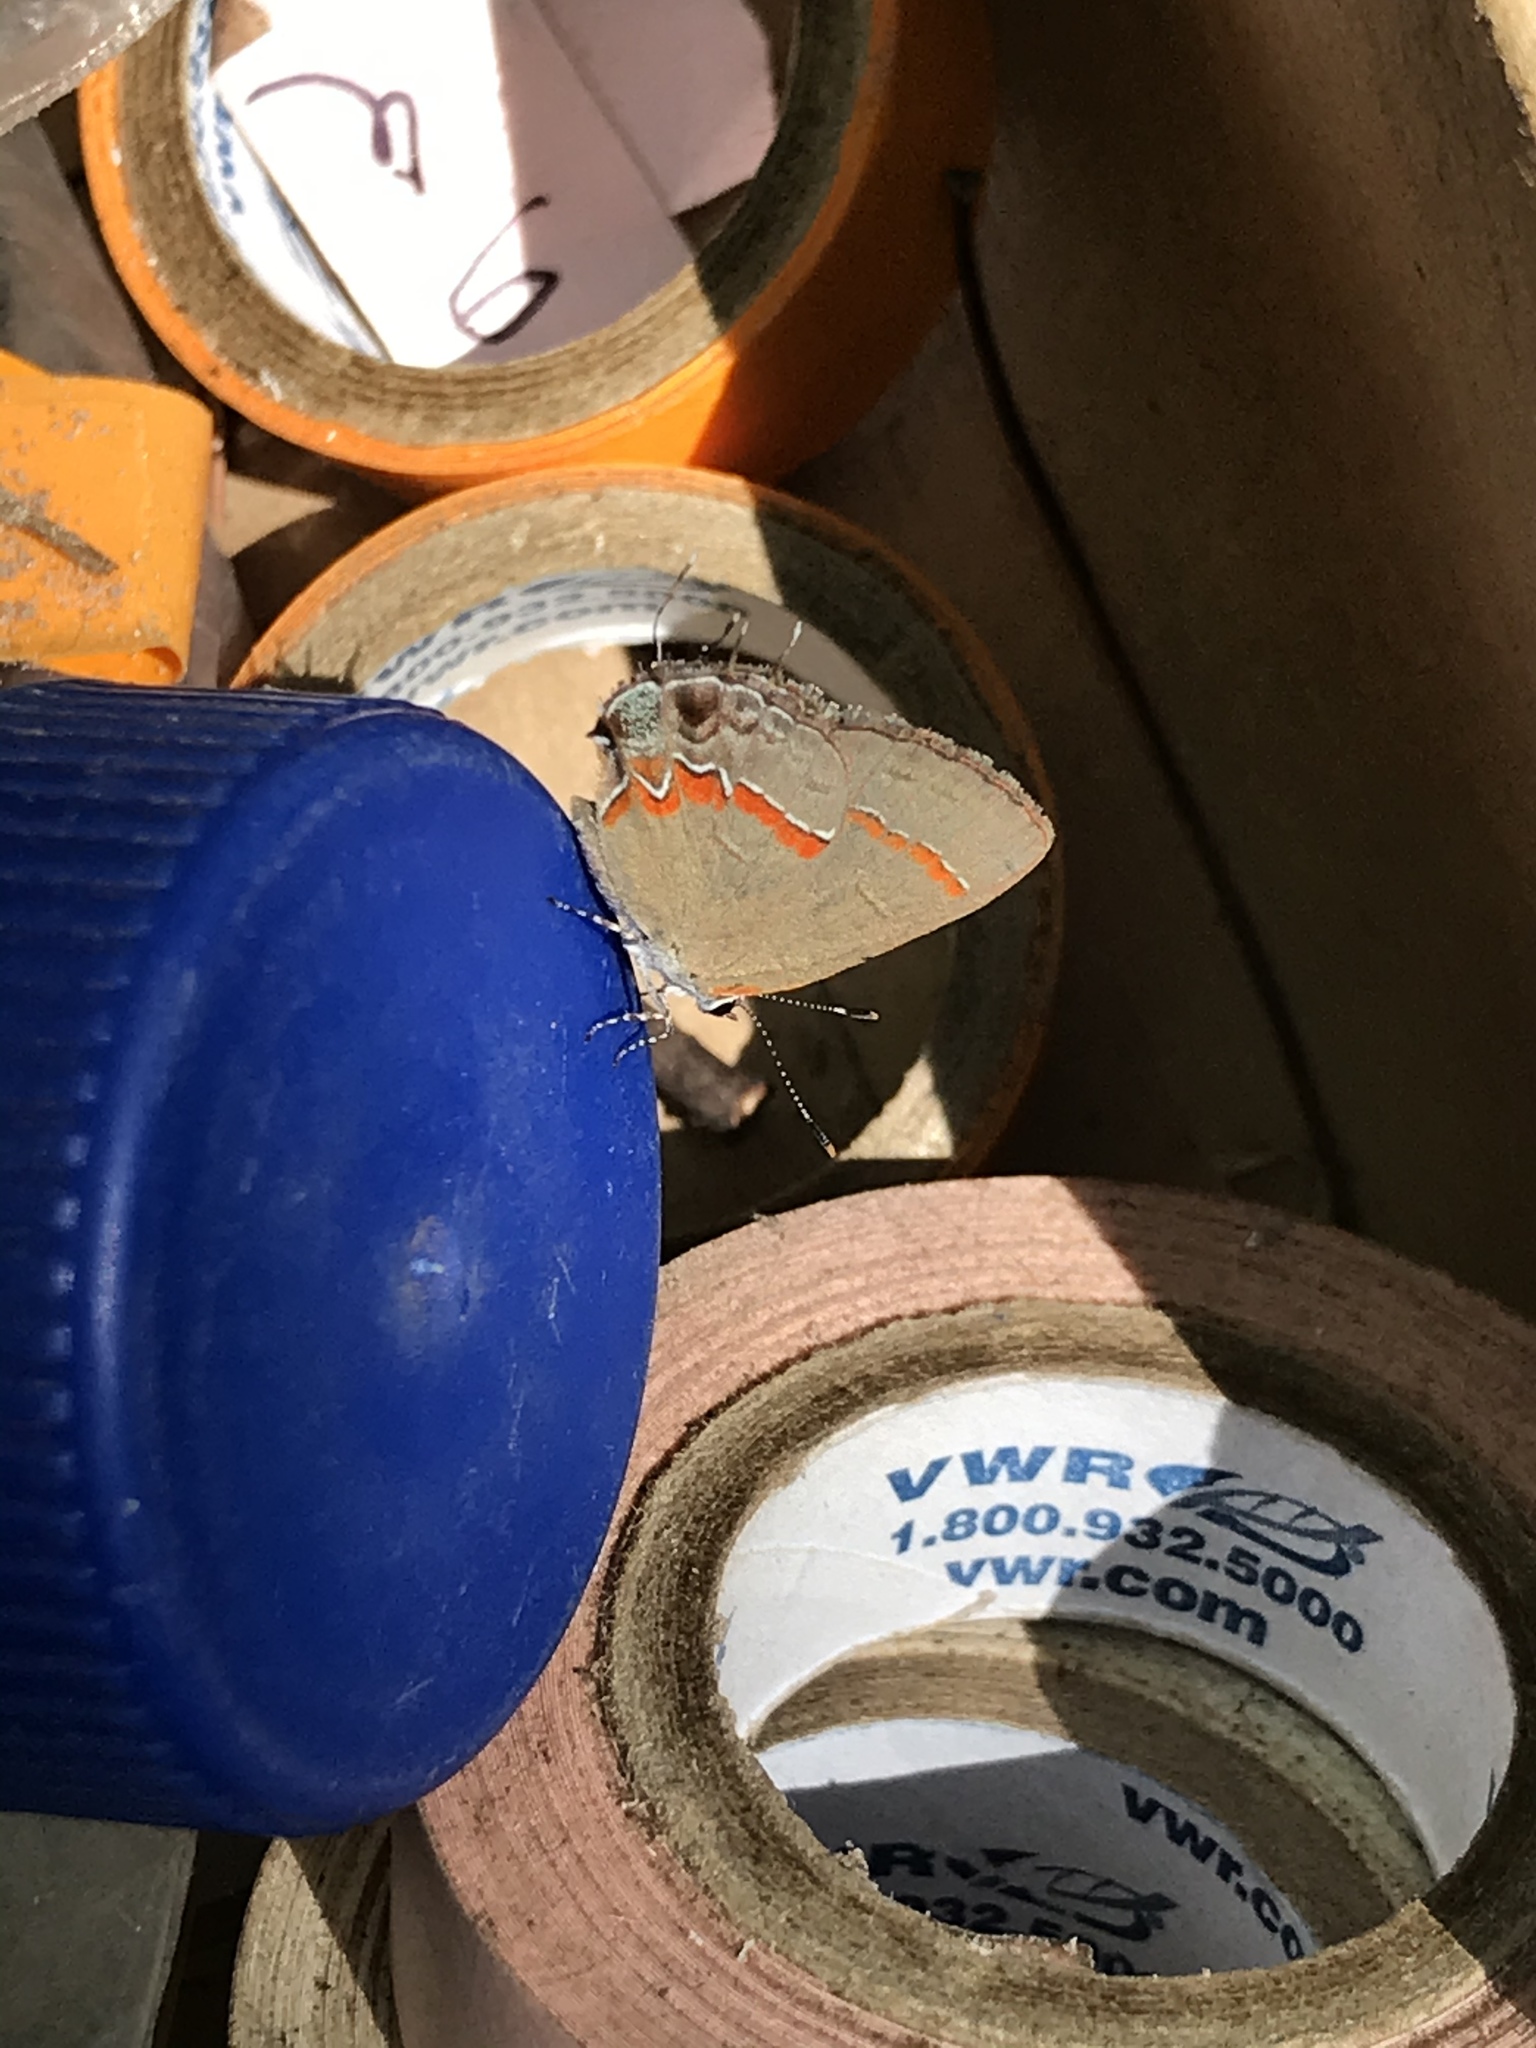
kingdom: Animalia
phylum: Arthropoda
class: Insecta
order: Lepidoptera
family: Lycaenidae
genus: Calycopis
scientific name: Calycopis cecrops
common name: Red-banded hairstreak
